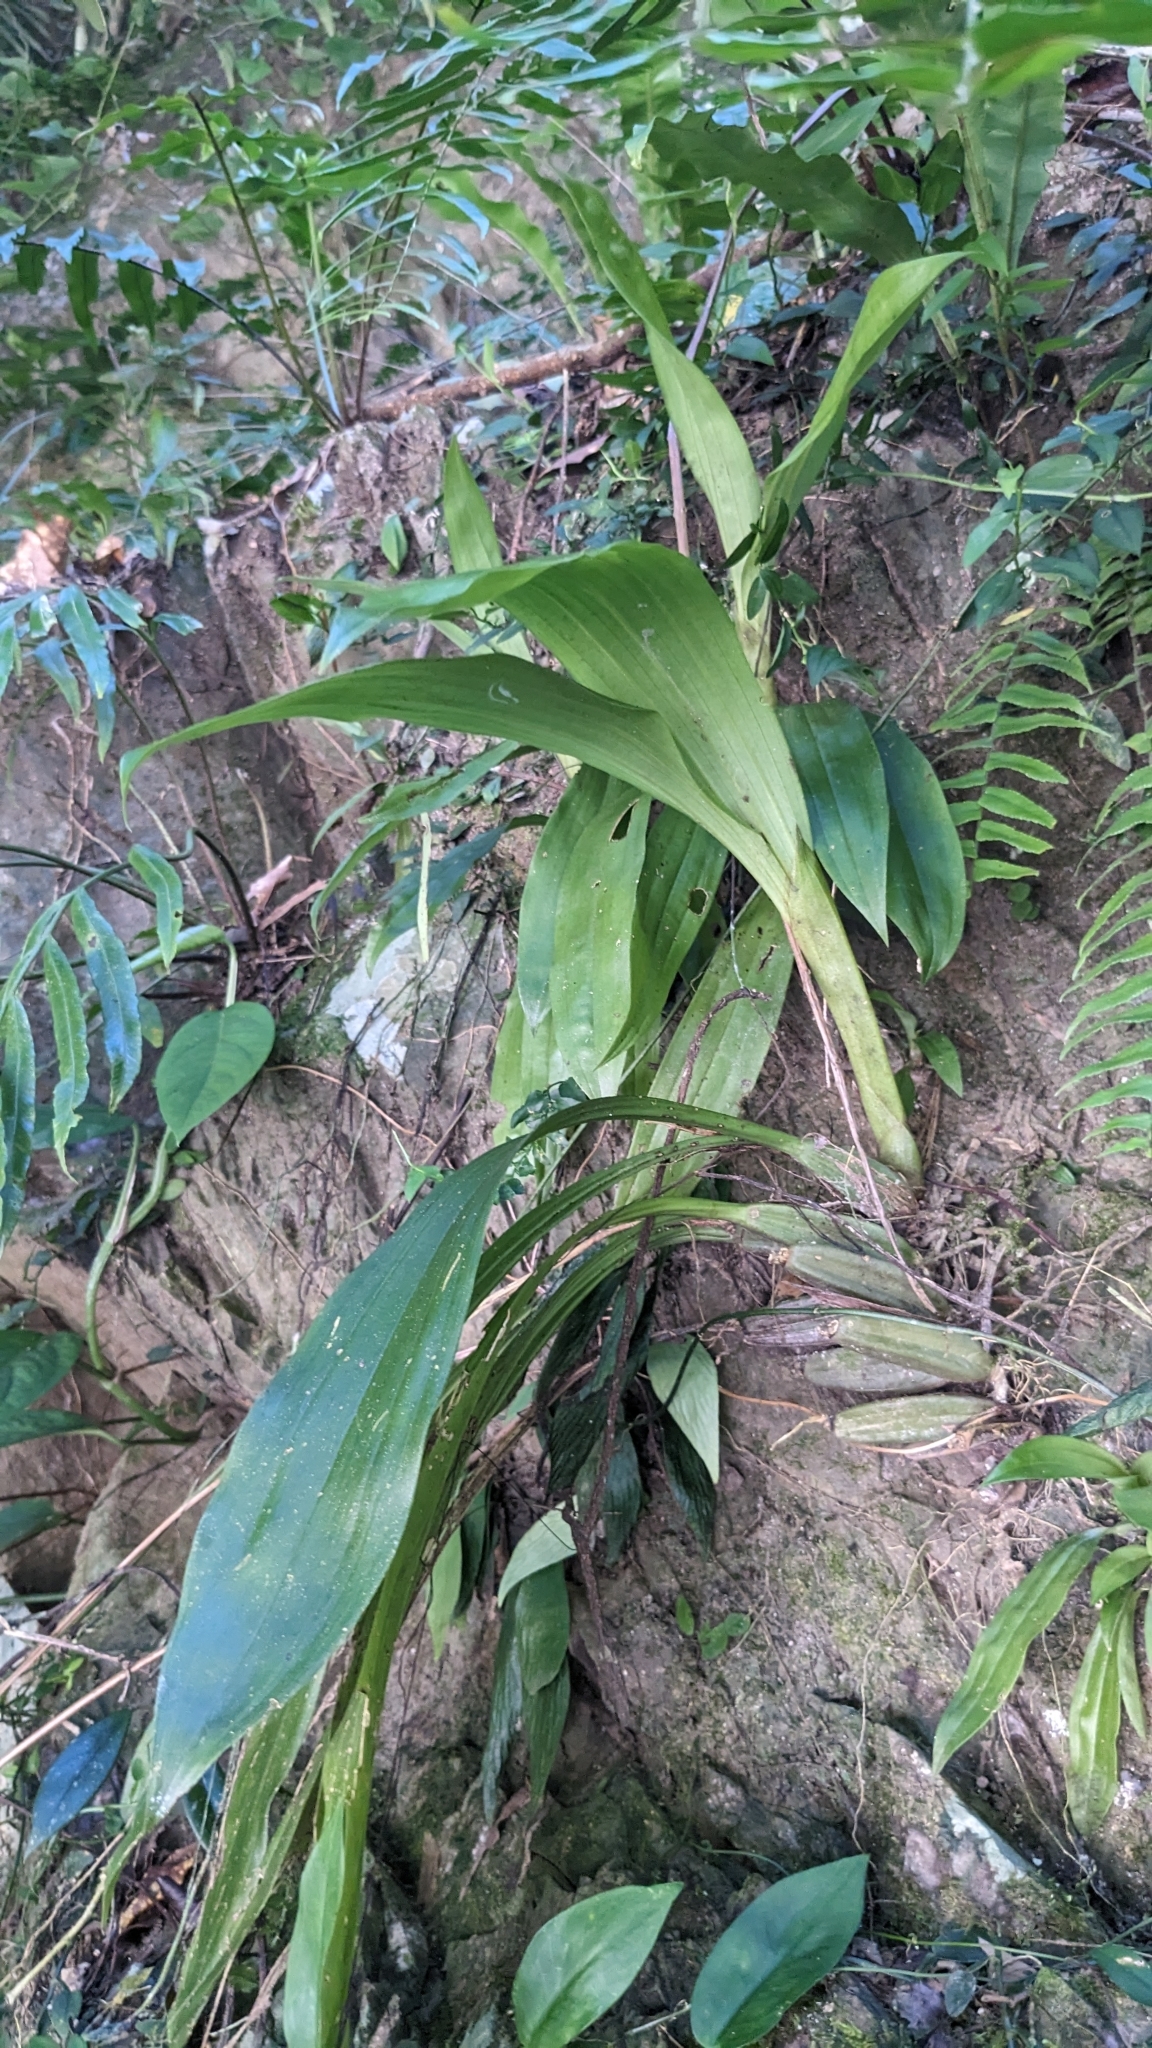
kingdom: Plantae
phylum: Tracheophyta
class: Liliopsida
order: Asparagales
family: Orchidaceae
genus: Eria
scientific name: Eria scabrilinguis
